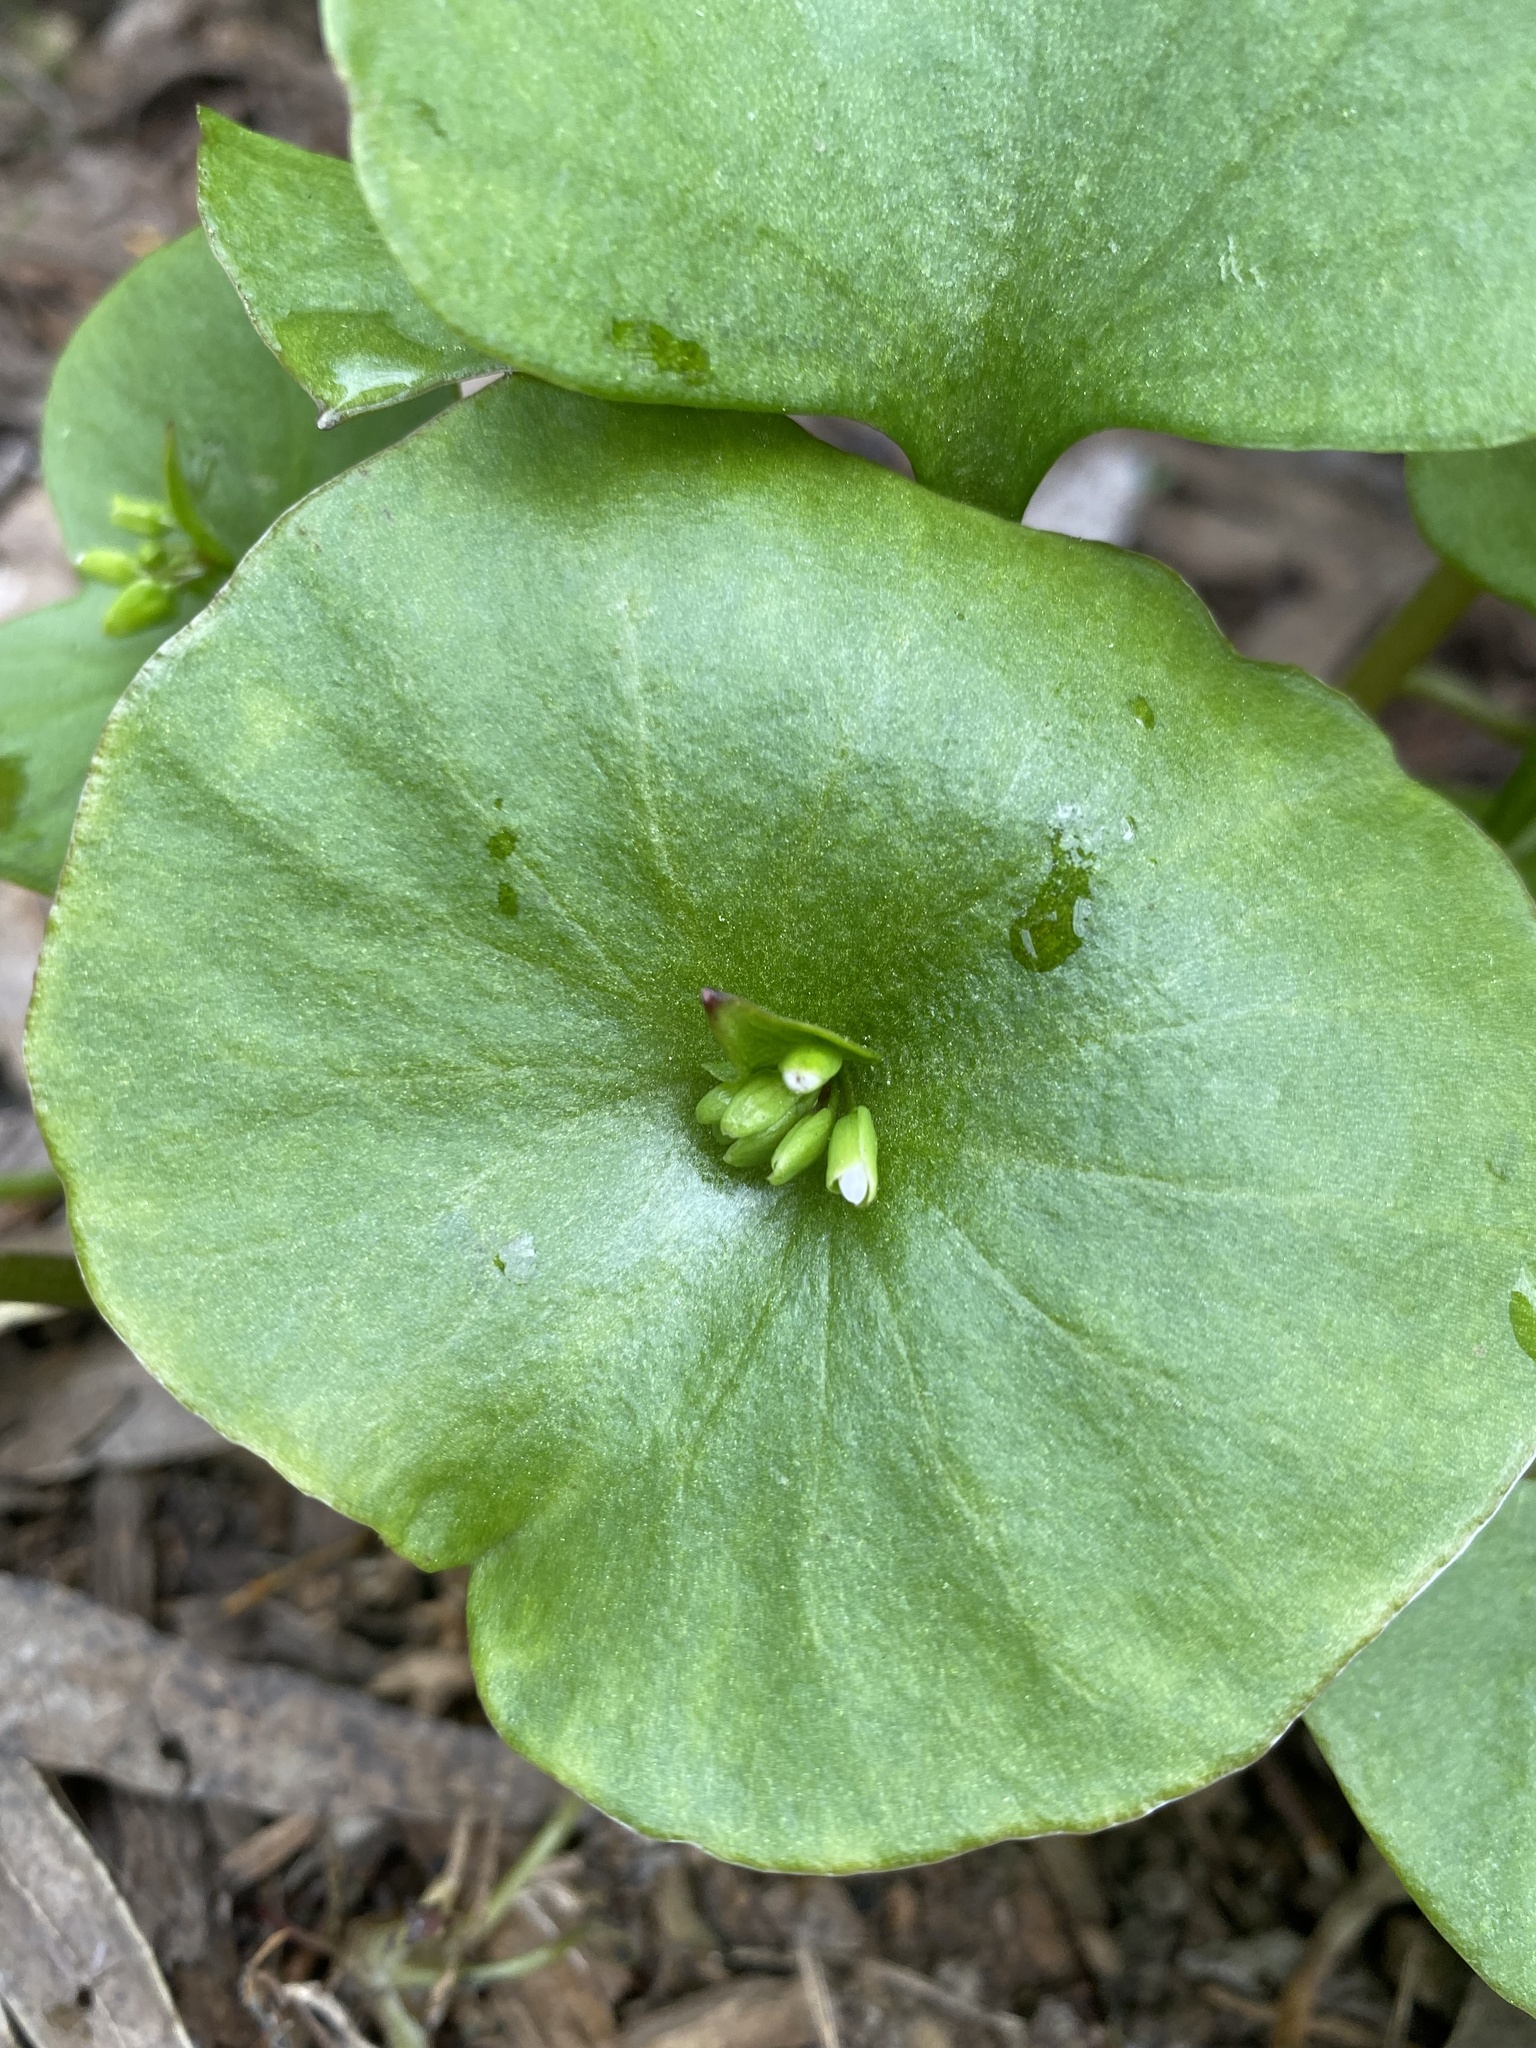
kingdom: Plantae
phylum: Tracheophyta
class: Magnoliopsida
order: Caryophyllales
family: Montiaceae
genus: Claytonia
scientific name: Claytonia perfoliata
